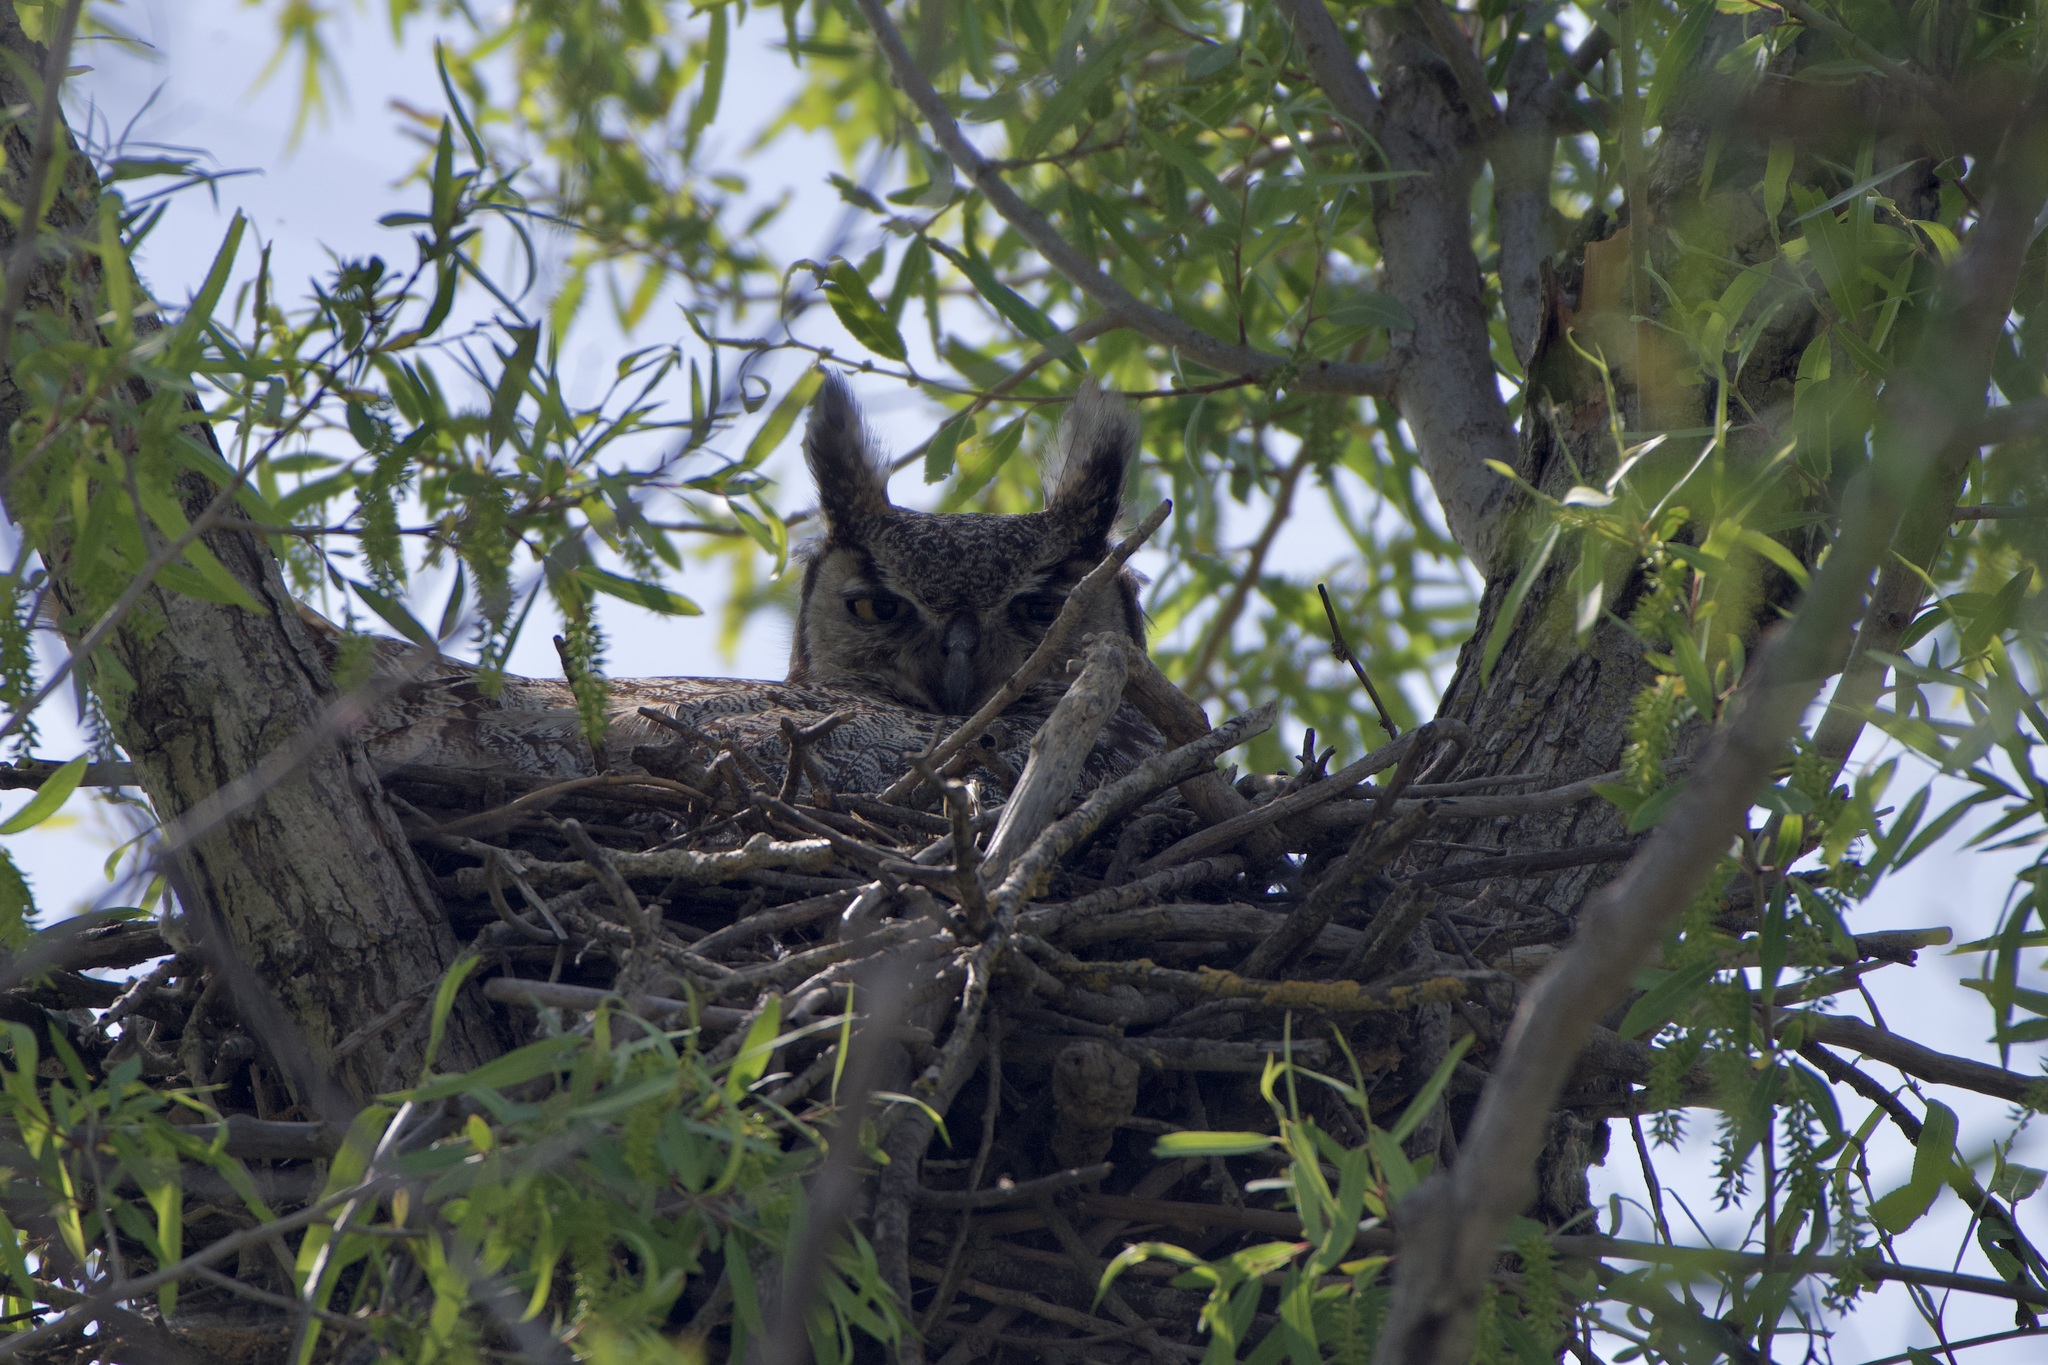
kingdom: Animalia
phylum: Chordata
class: Aves
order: Strigiformes
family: Strigidae
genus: Bubo
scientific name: Bubo virginianus
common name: Great horned owl
